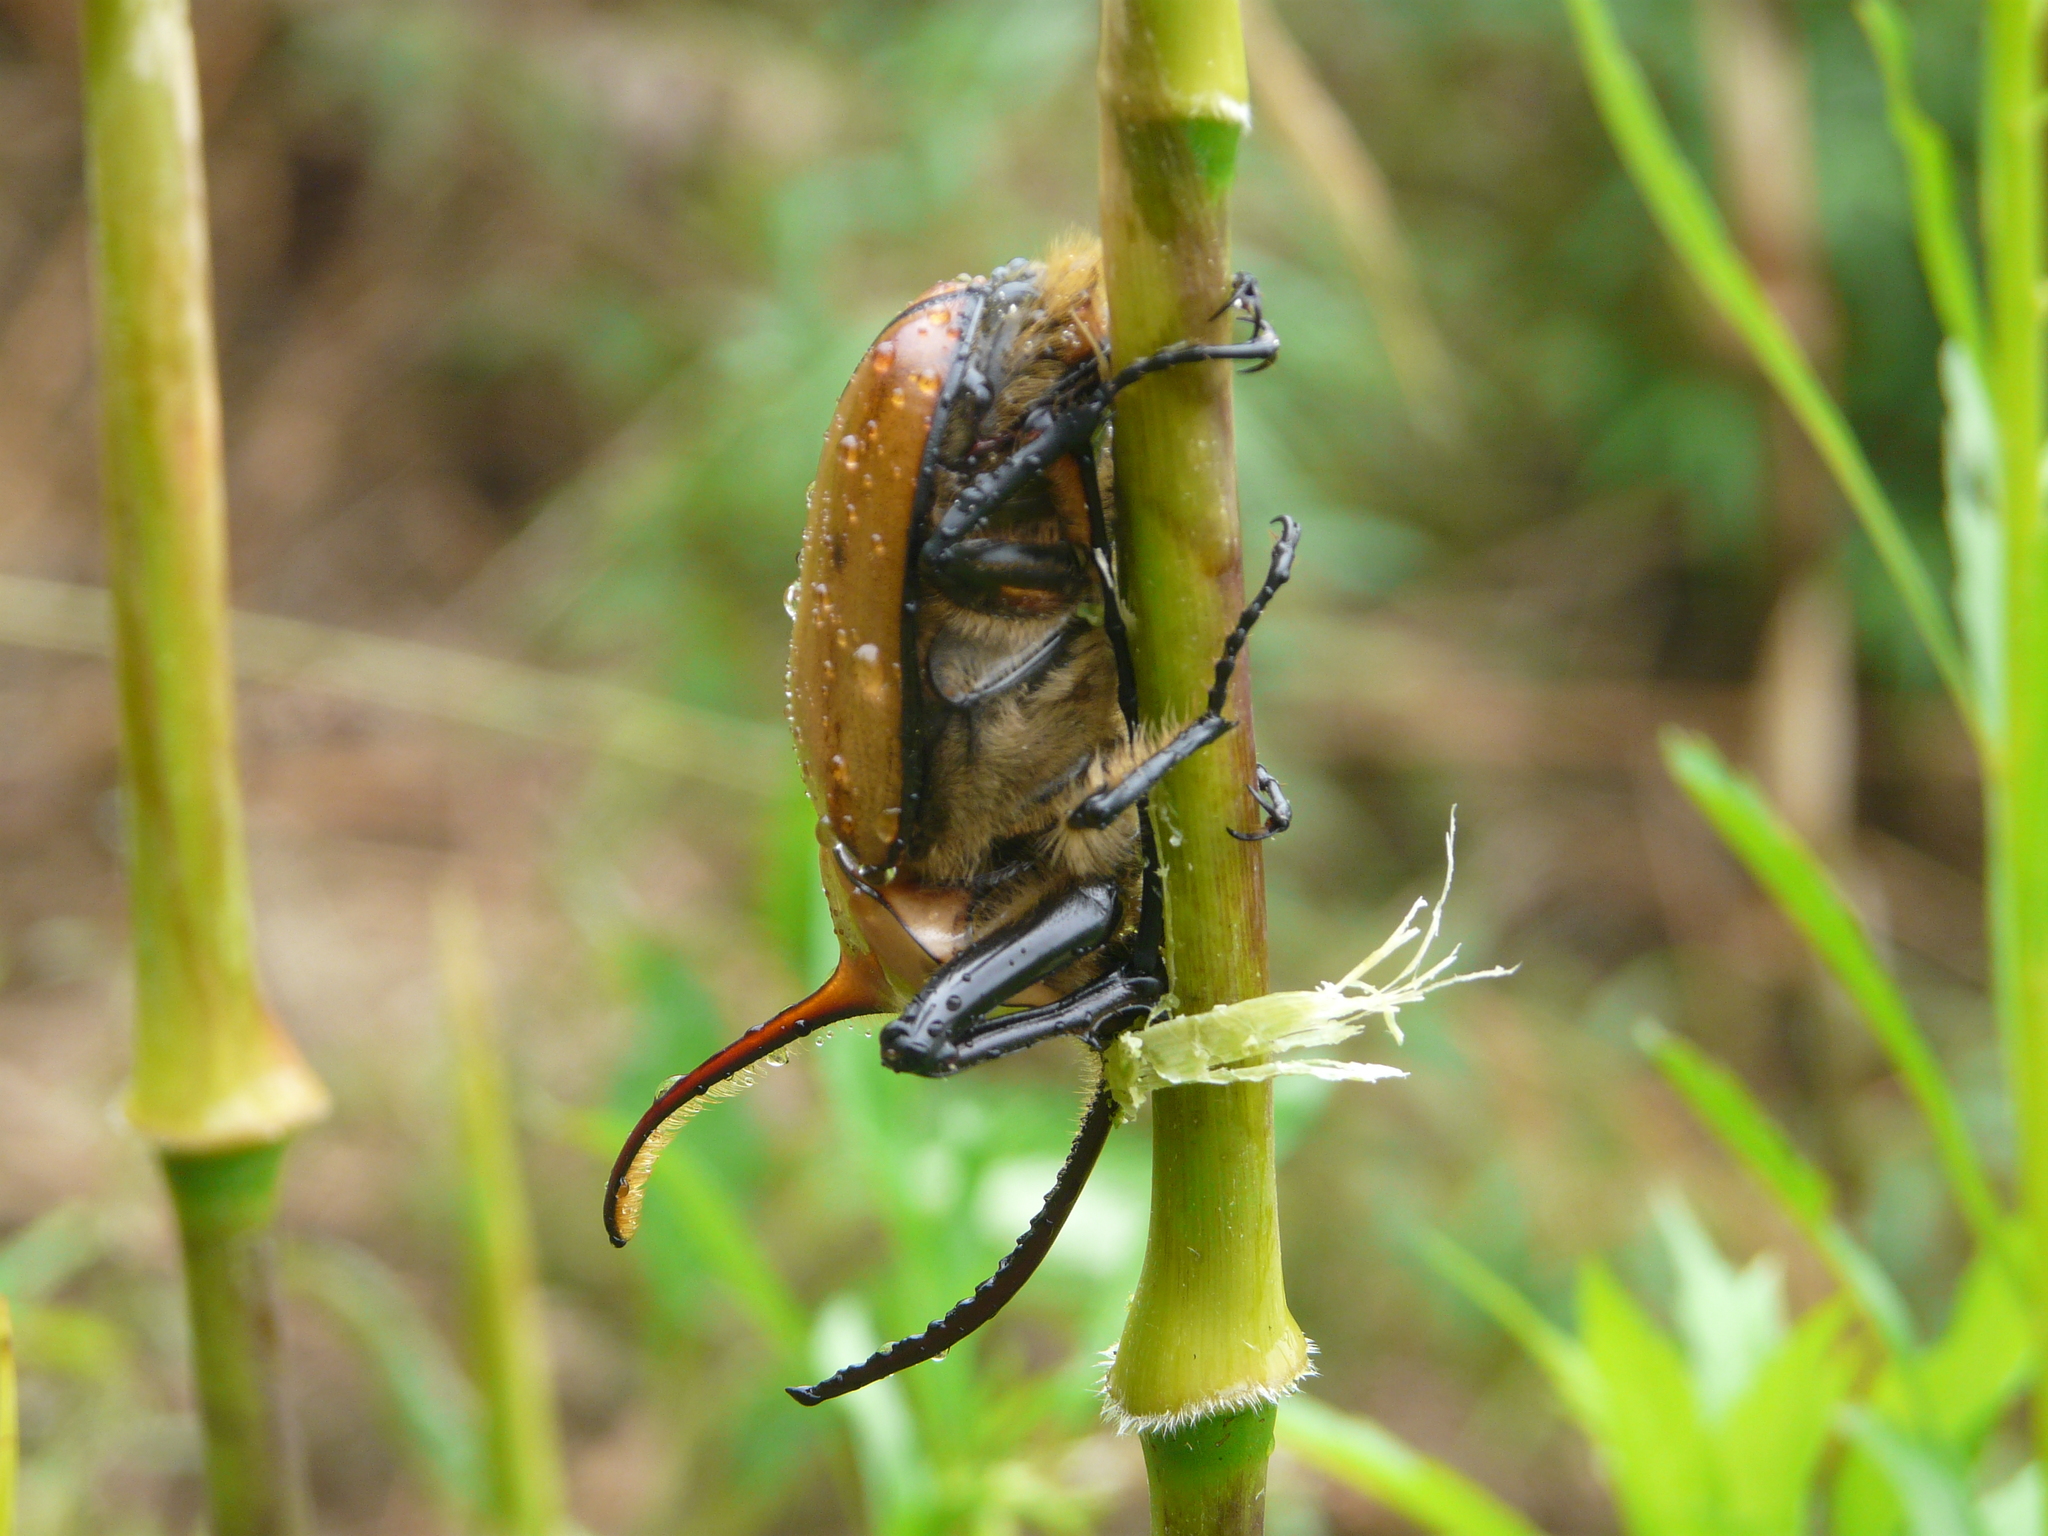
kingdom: Animalia
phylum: Arthropoda
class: Insecta
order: Coleoptera
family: Scarabaeidae
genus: Golofa
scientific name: Golofa porteri
